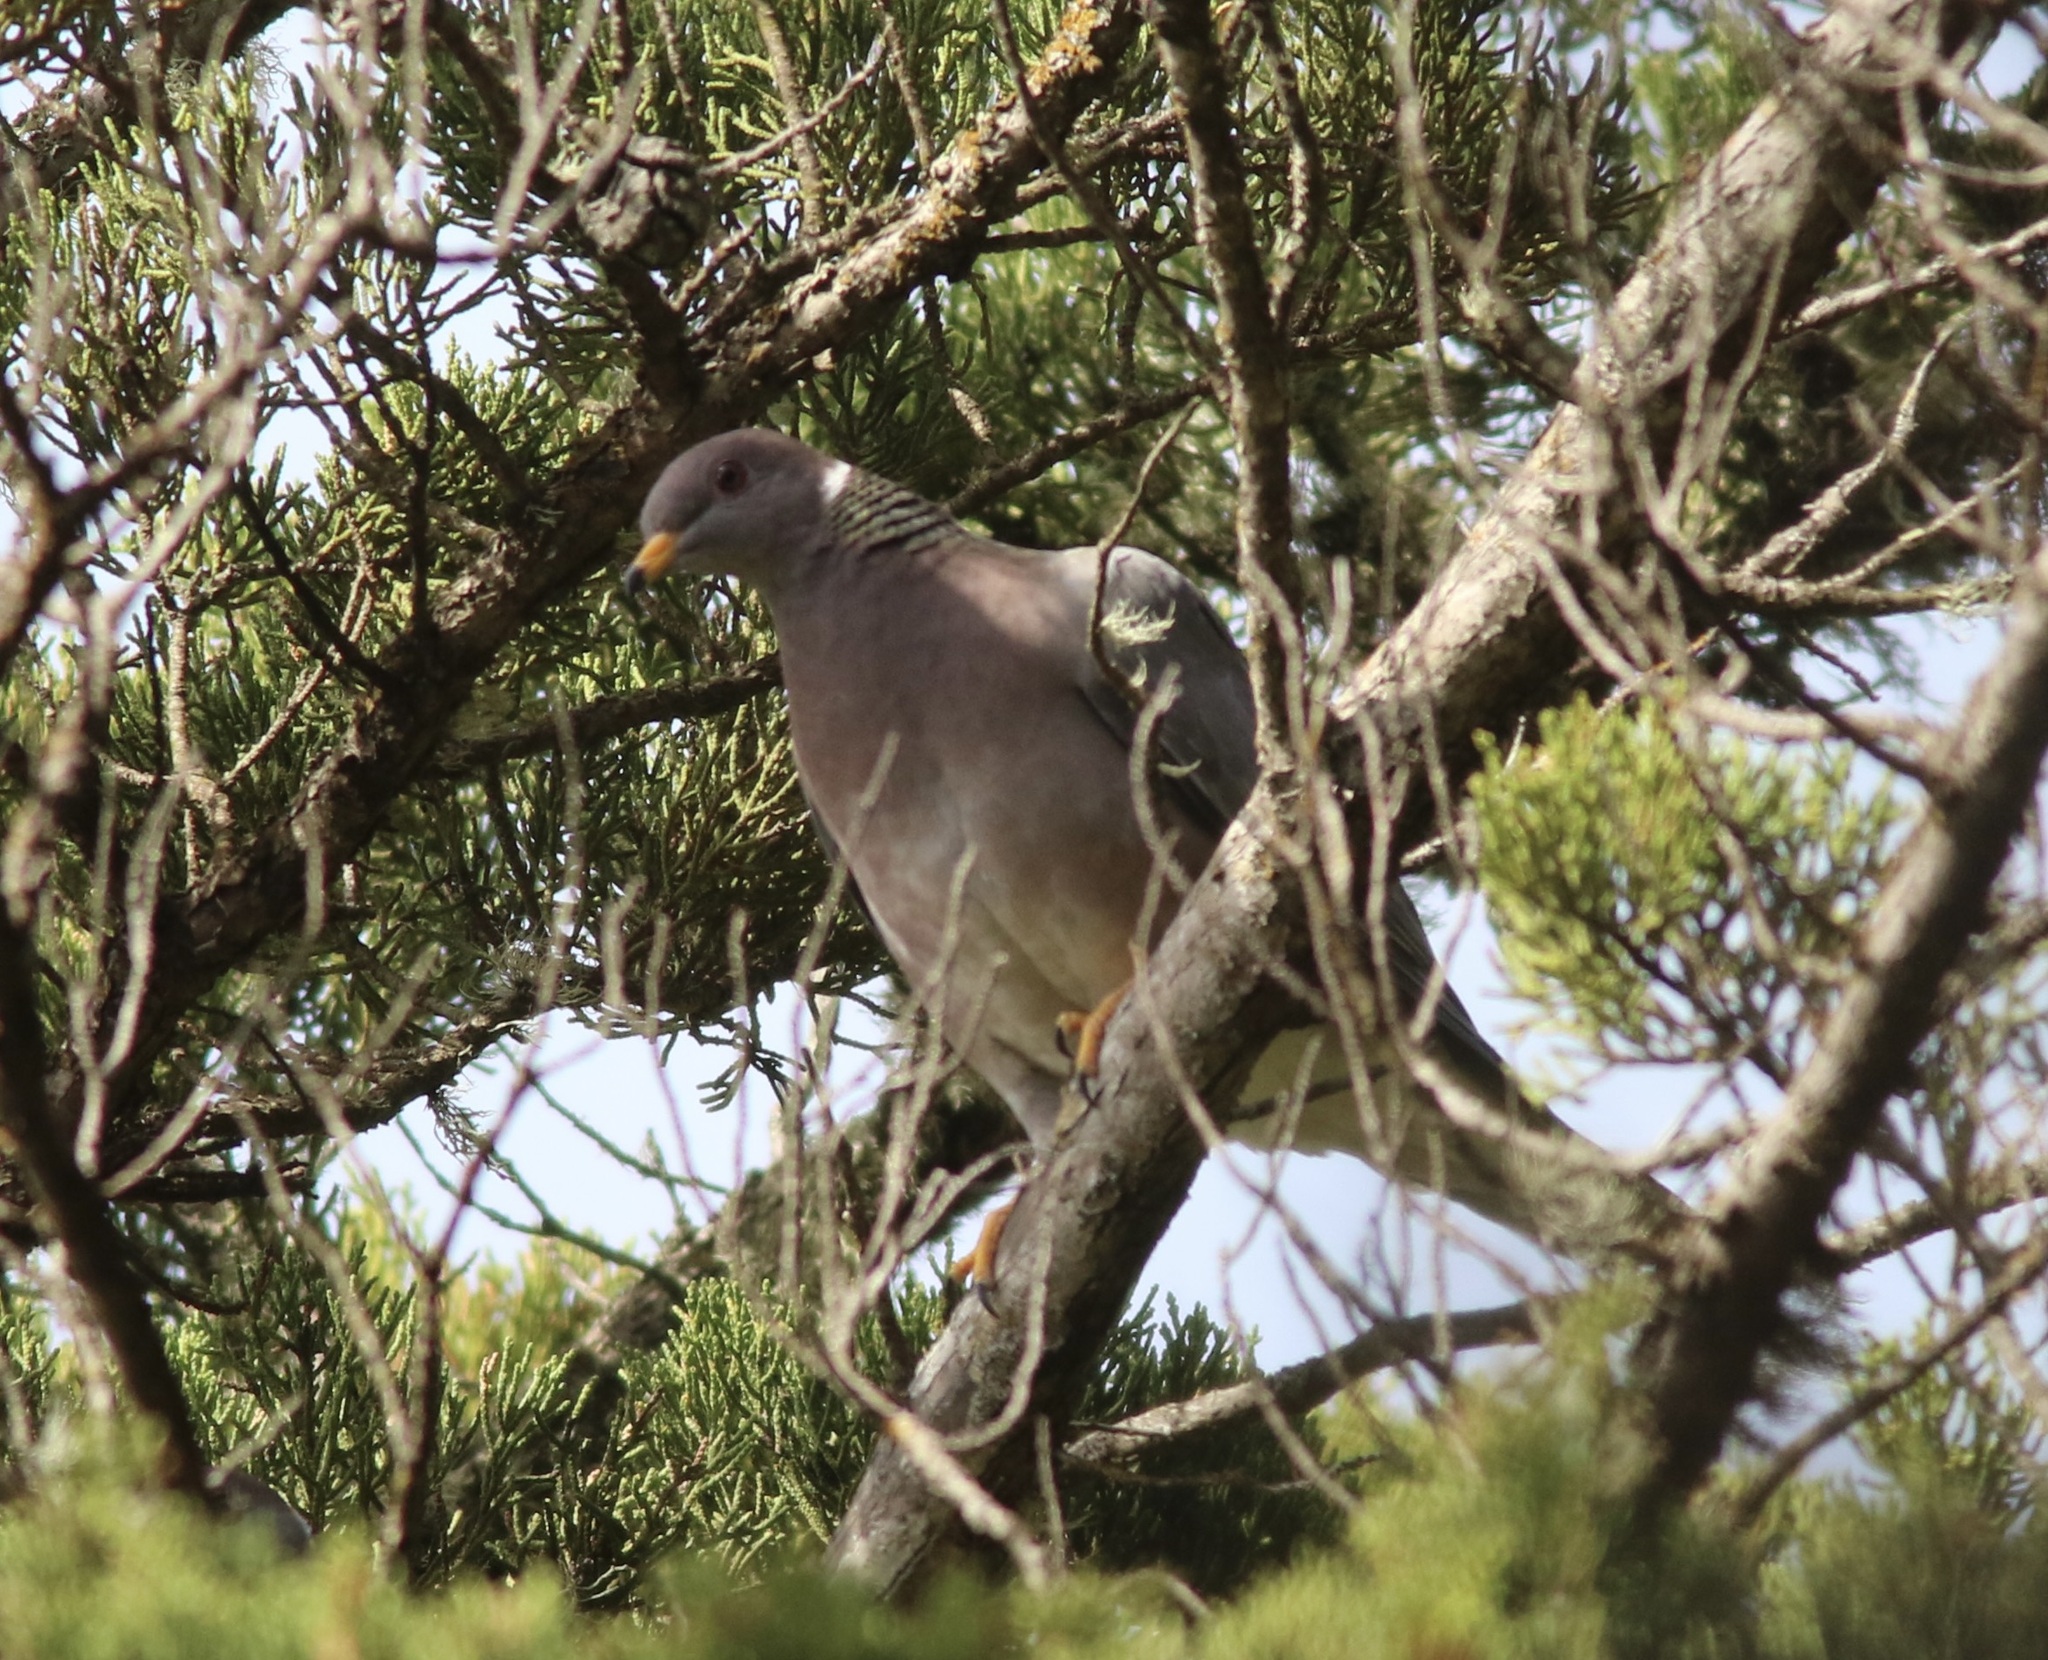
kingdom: Animalia
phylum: Chordata
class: Aves
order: Columbiformes
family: Columbidae
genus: Patagioenas
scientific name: Patagioenas fasciata
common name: Band-tailed pigeon
